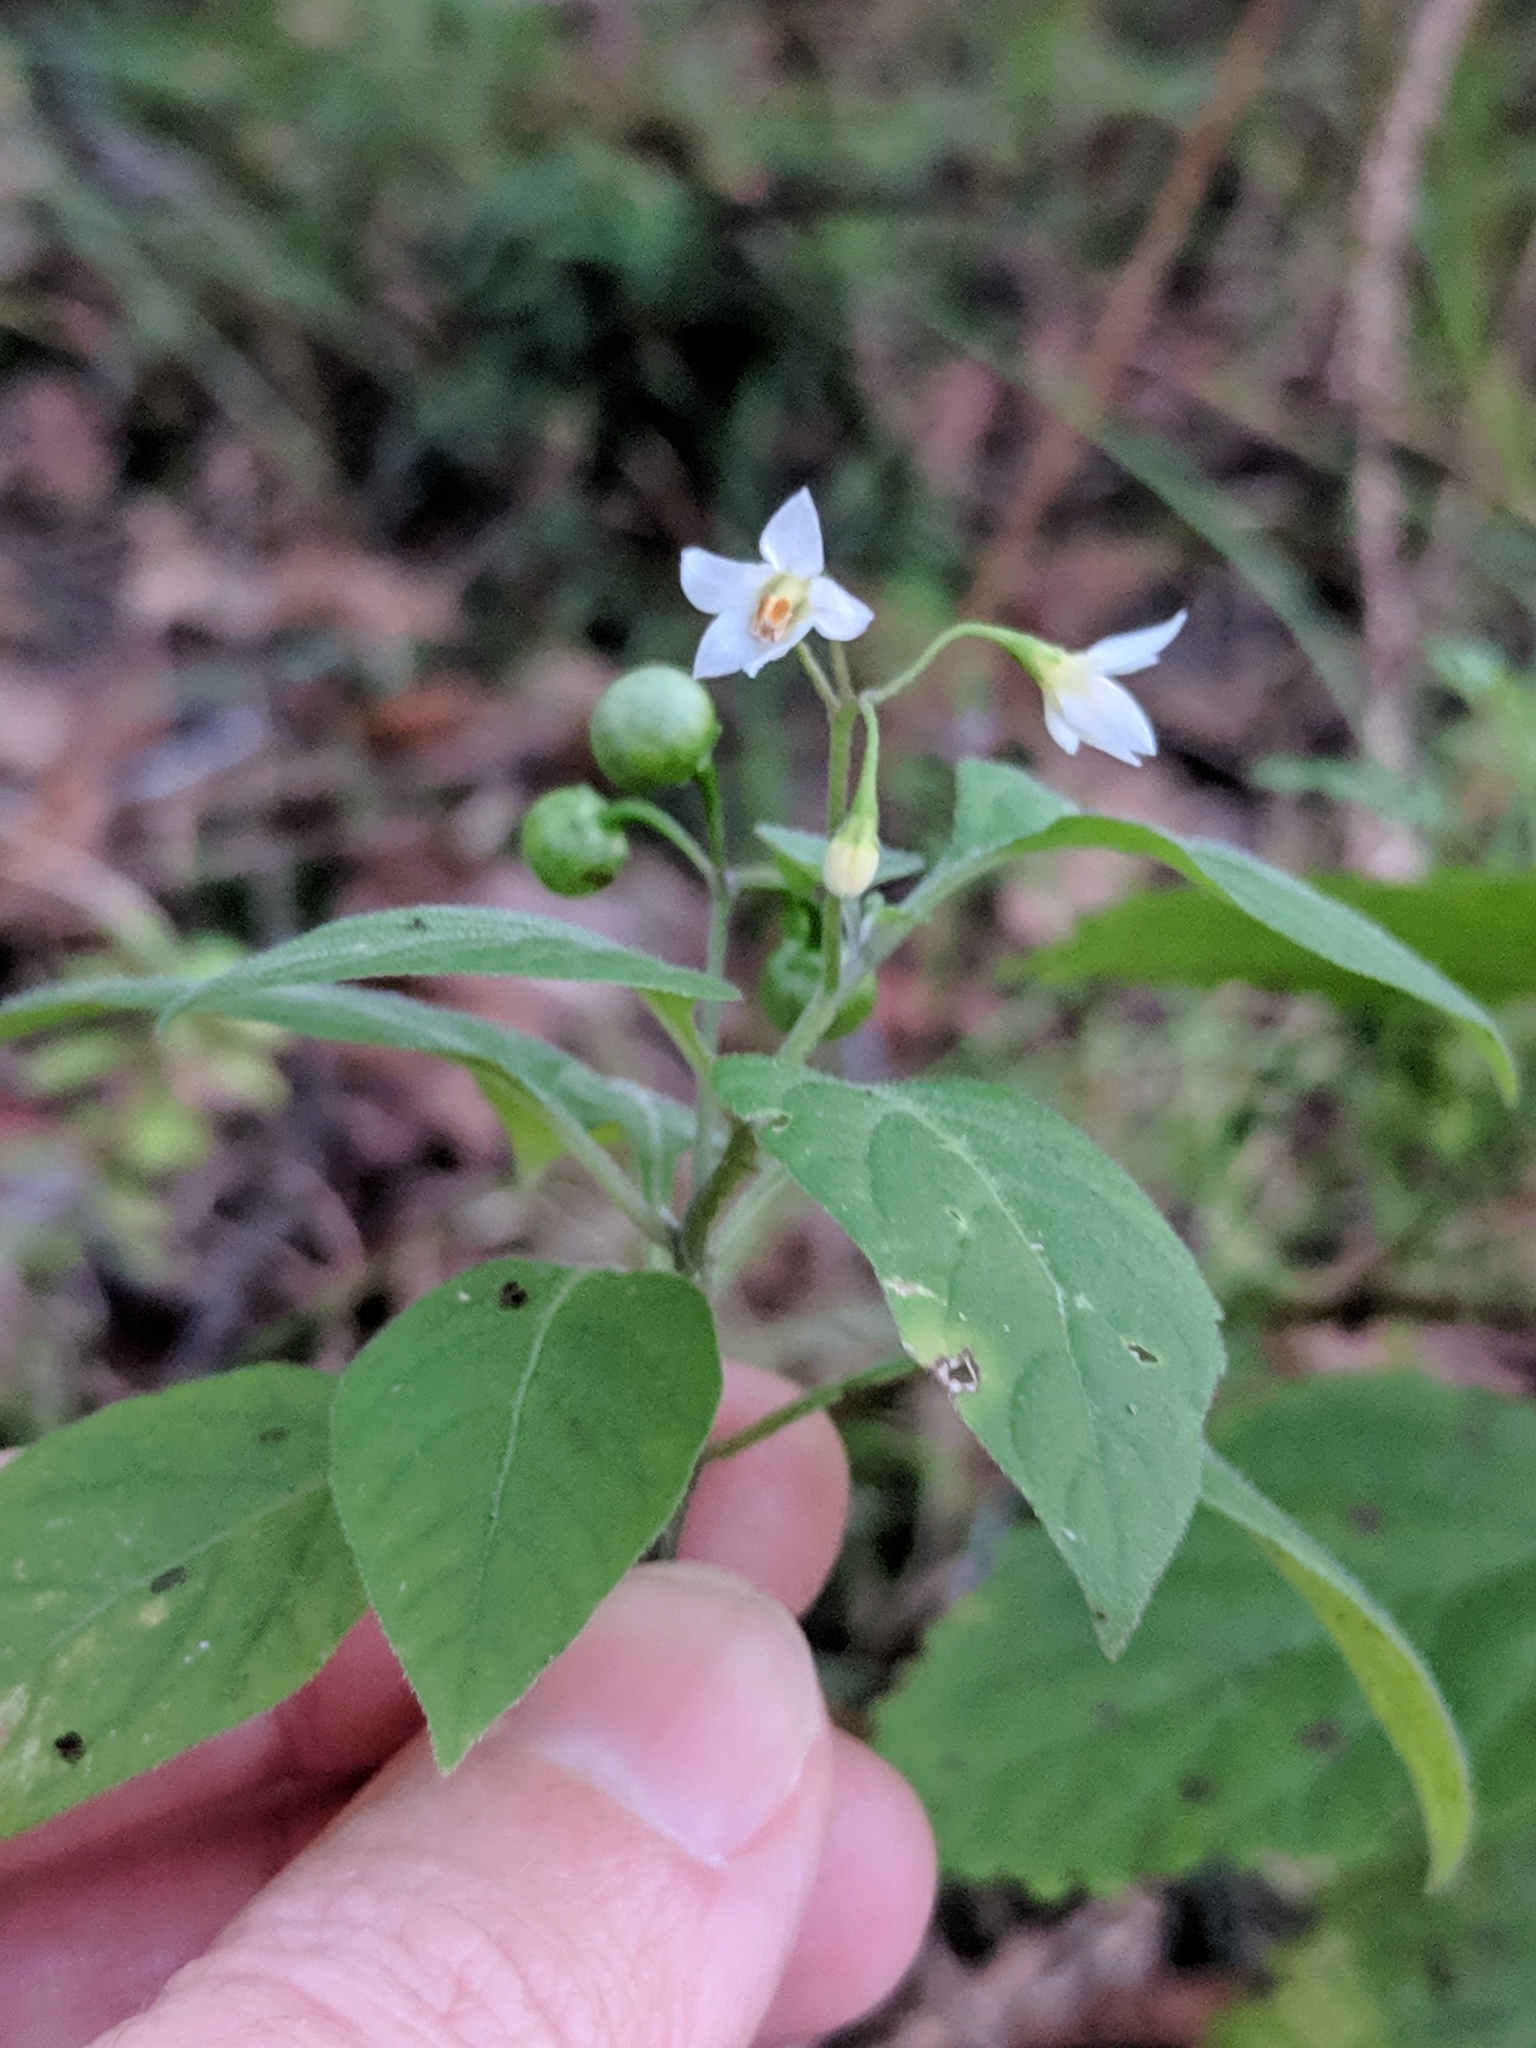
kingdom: Plantae
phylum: Tracheophyta
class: Magnoliopsida
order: Solanales
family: Solanaceae
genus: Solanum
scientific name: Solanum americanum
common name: American black nightshade
